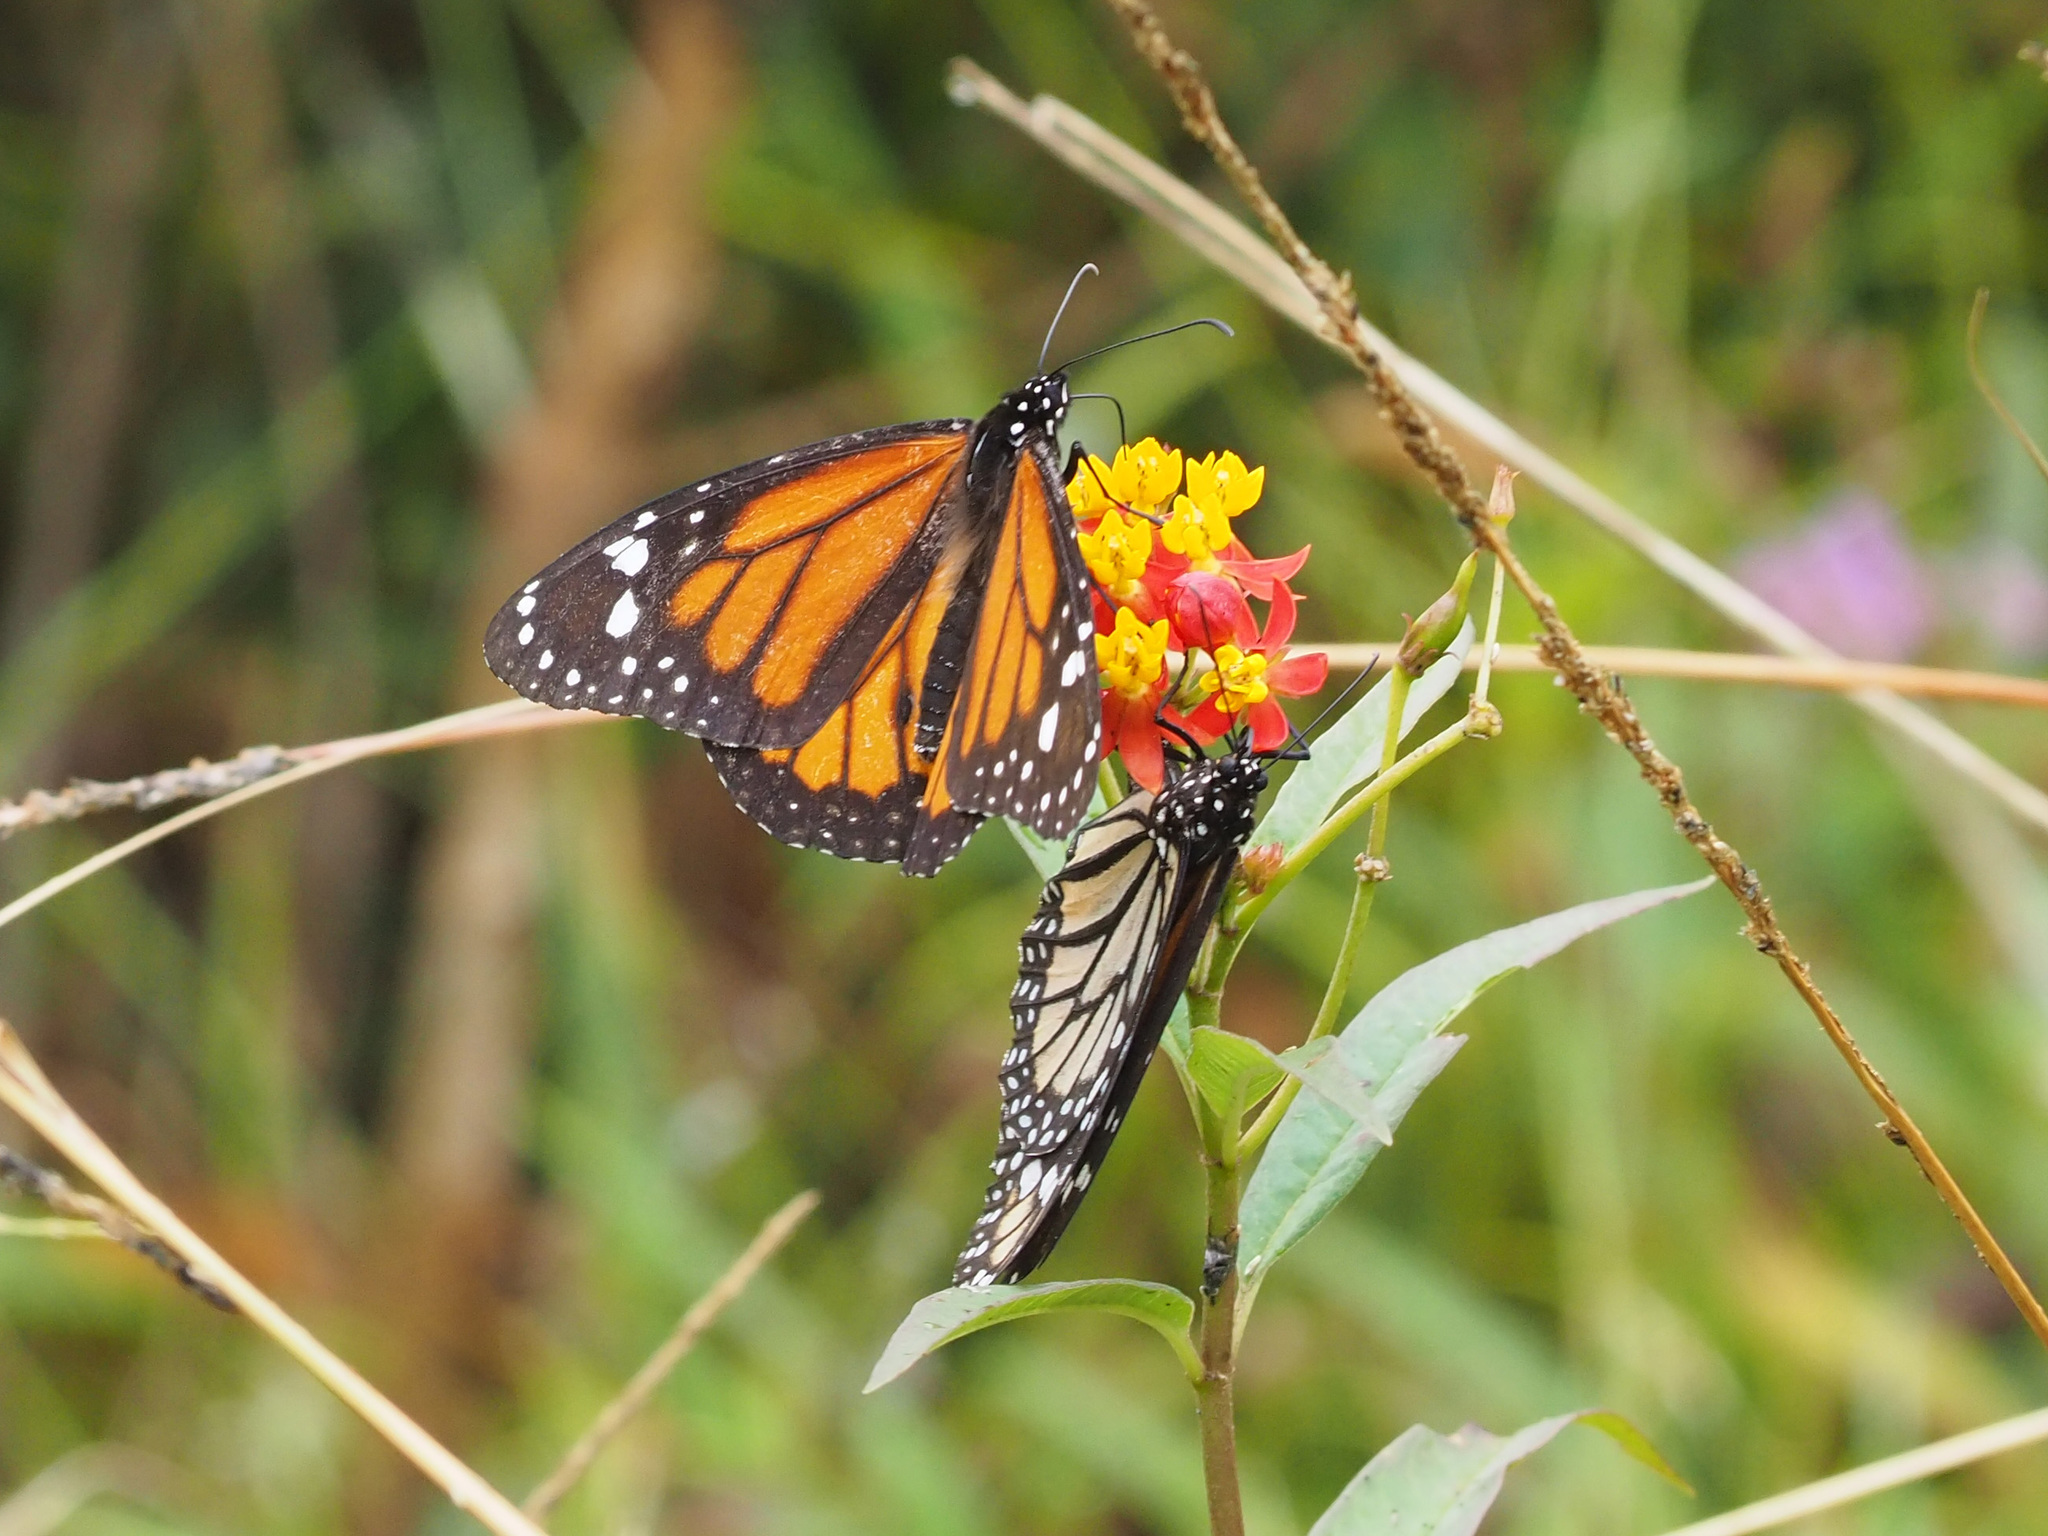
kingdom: Animalia
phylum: Arthropoda
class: Insecta
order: Lepidoptera
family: Nymphalidae
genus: Danaus
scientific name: Danaus plexippus
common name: Monarch
